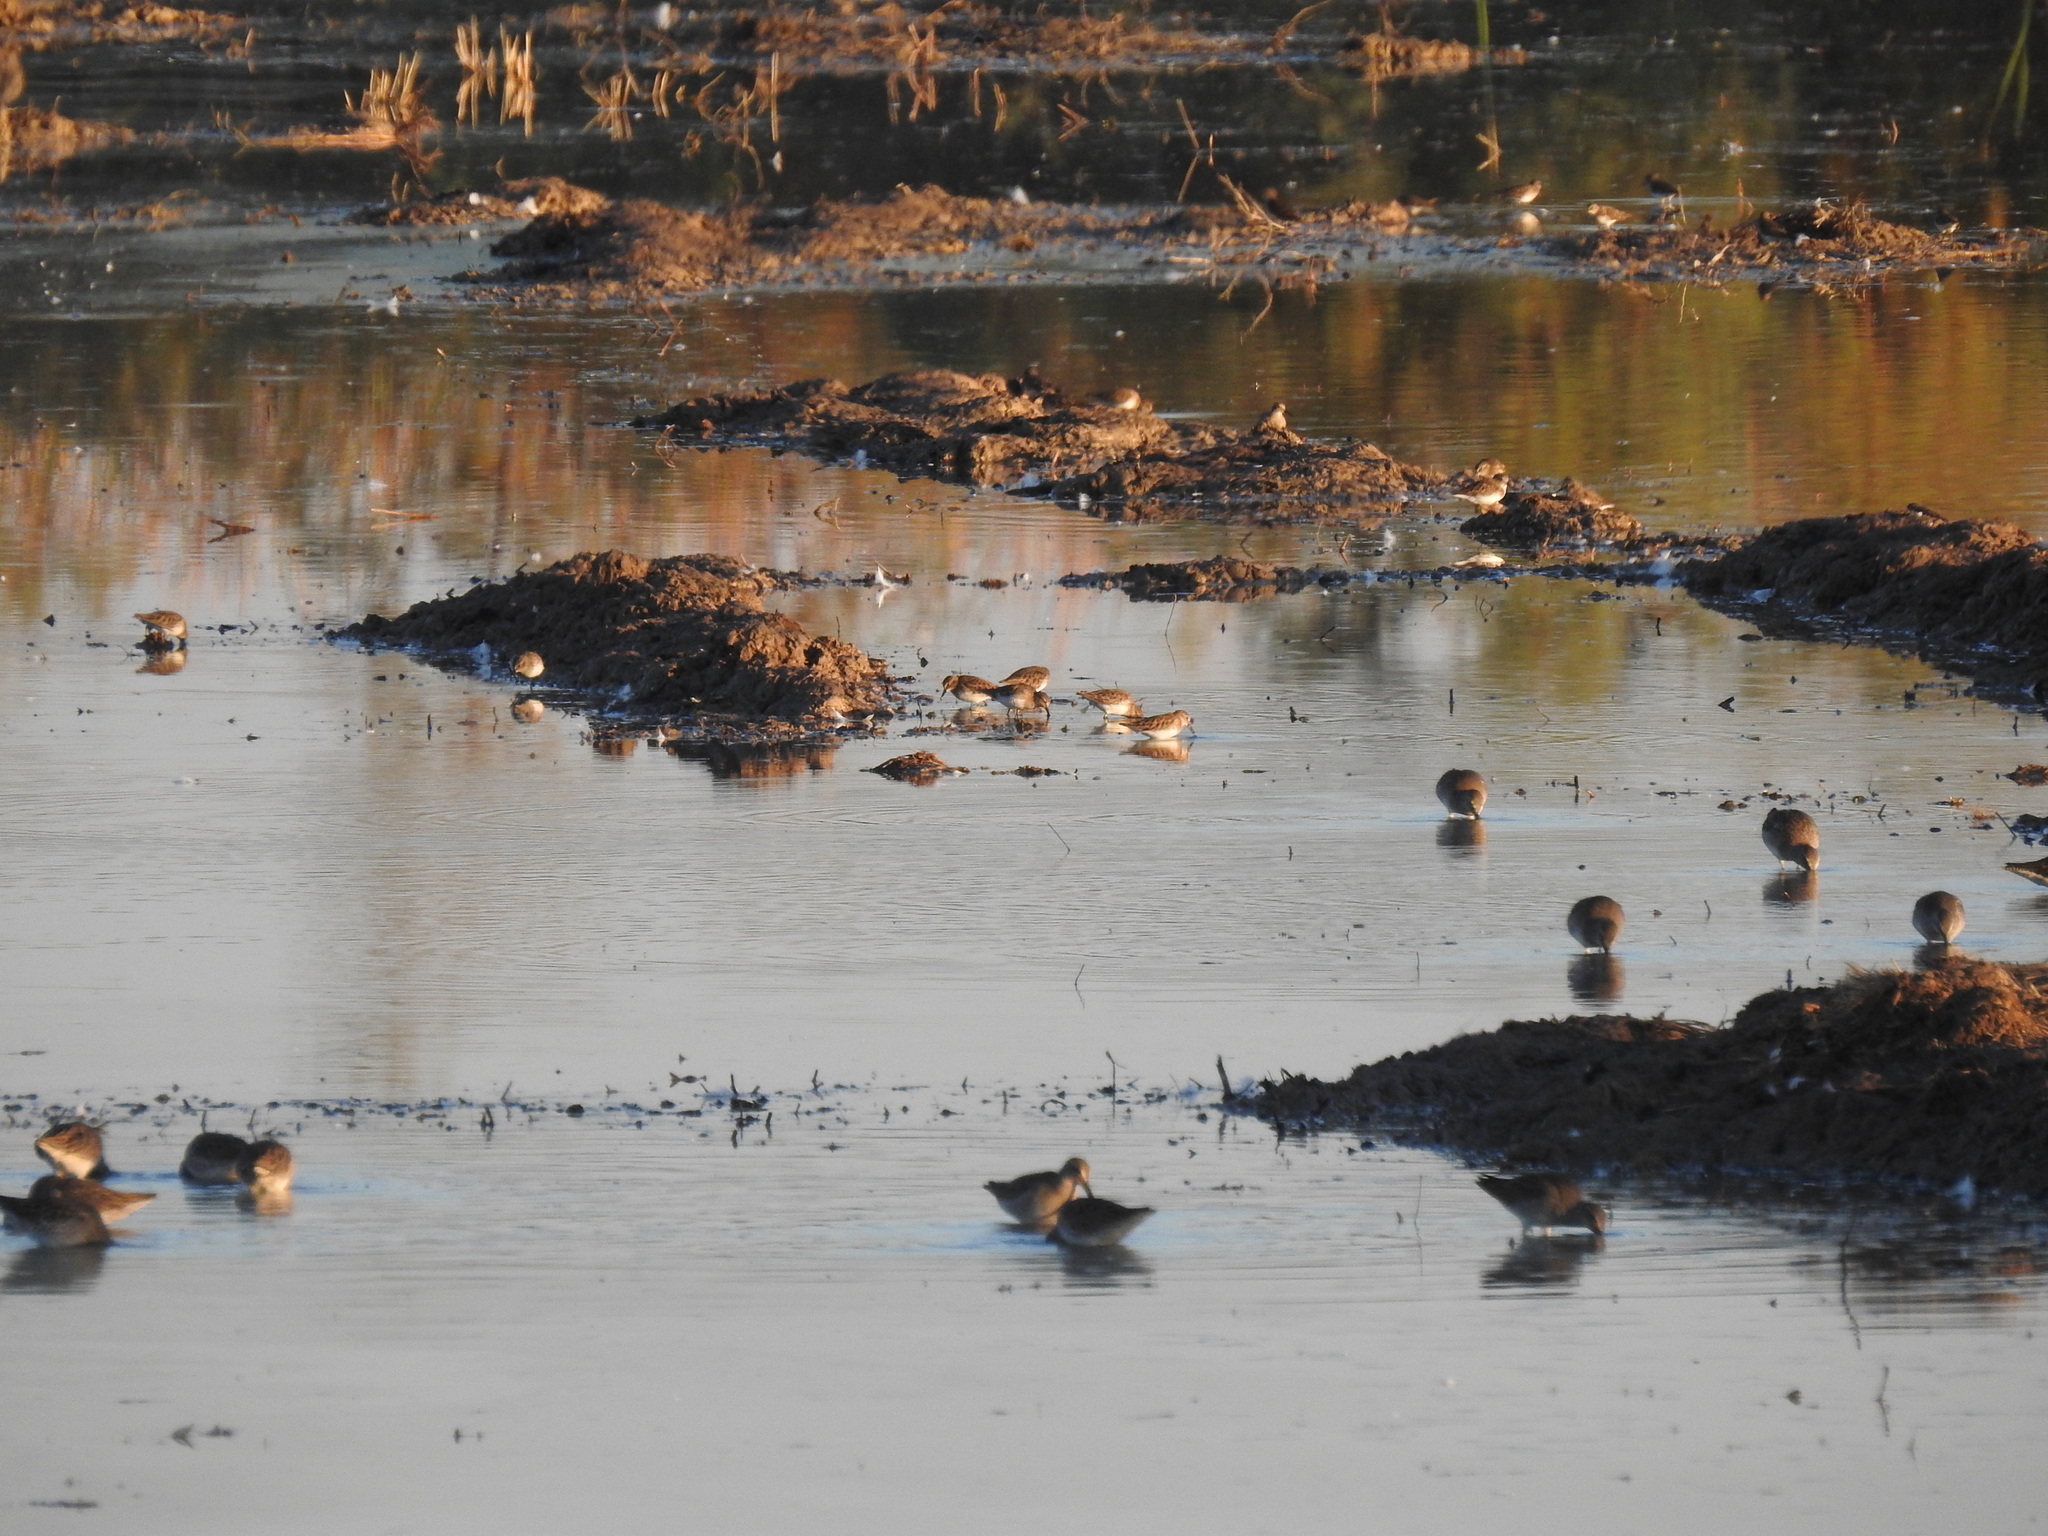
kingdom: Animalia
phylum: Chordata
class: Aves
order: Charadriiformes
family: Scolopacidae
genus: Calidris
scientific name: Calidris minutilla
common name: Least sandpiper
